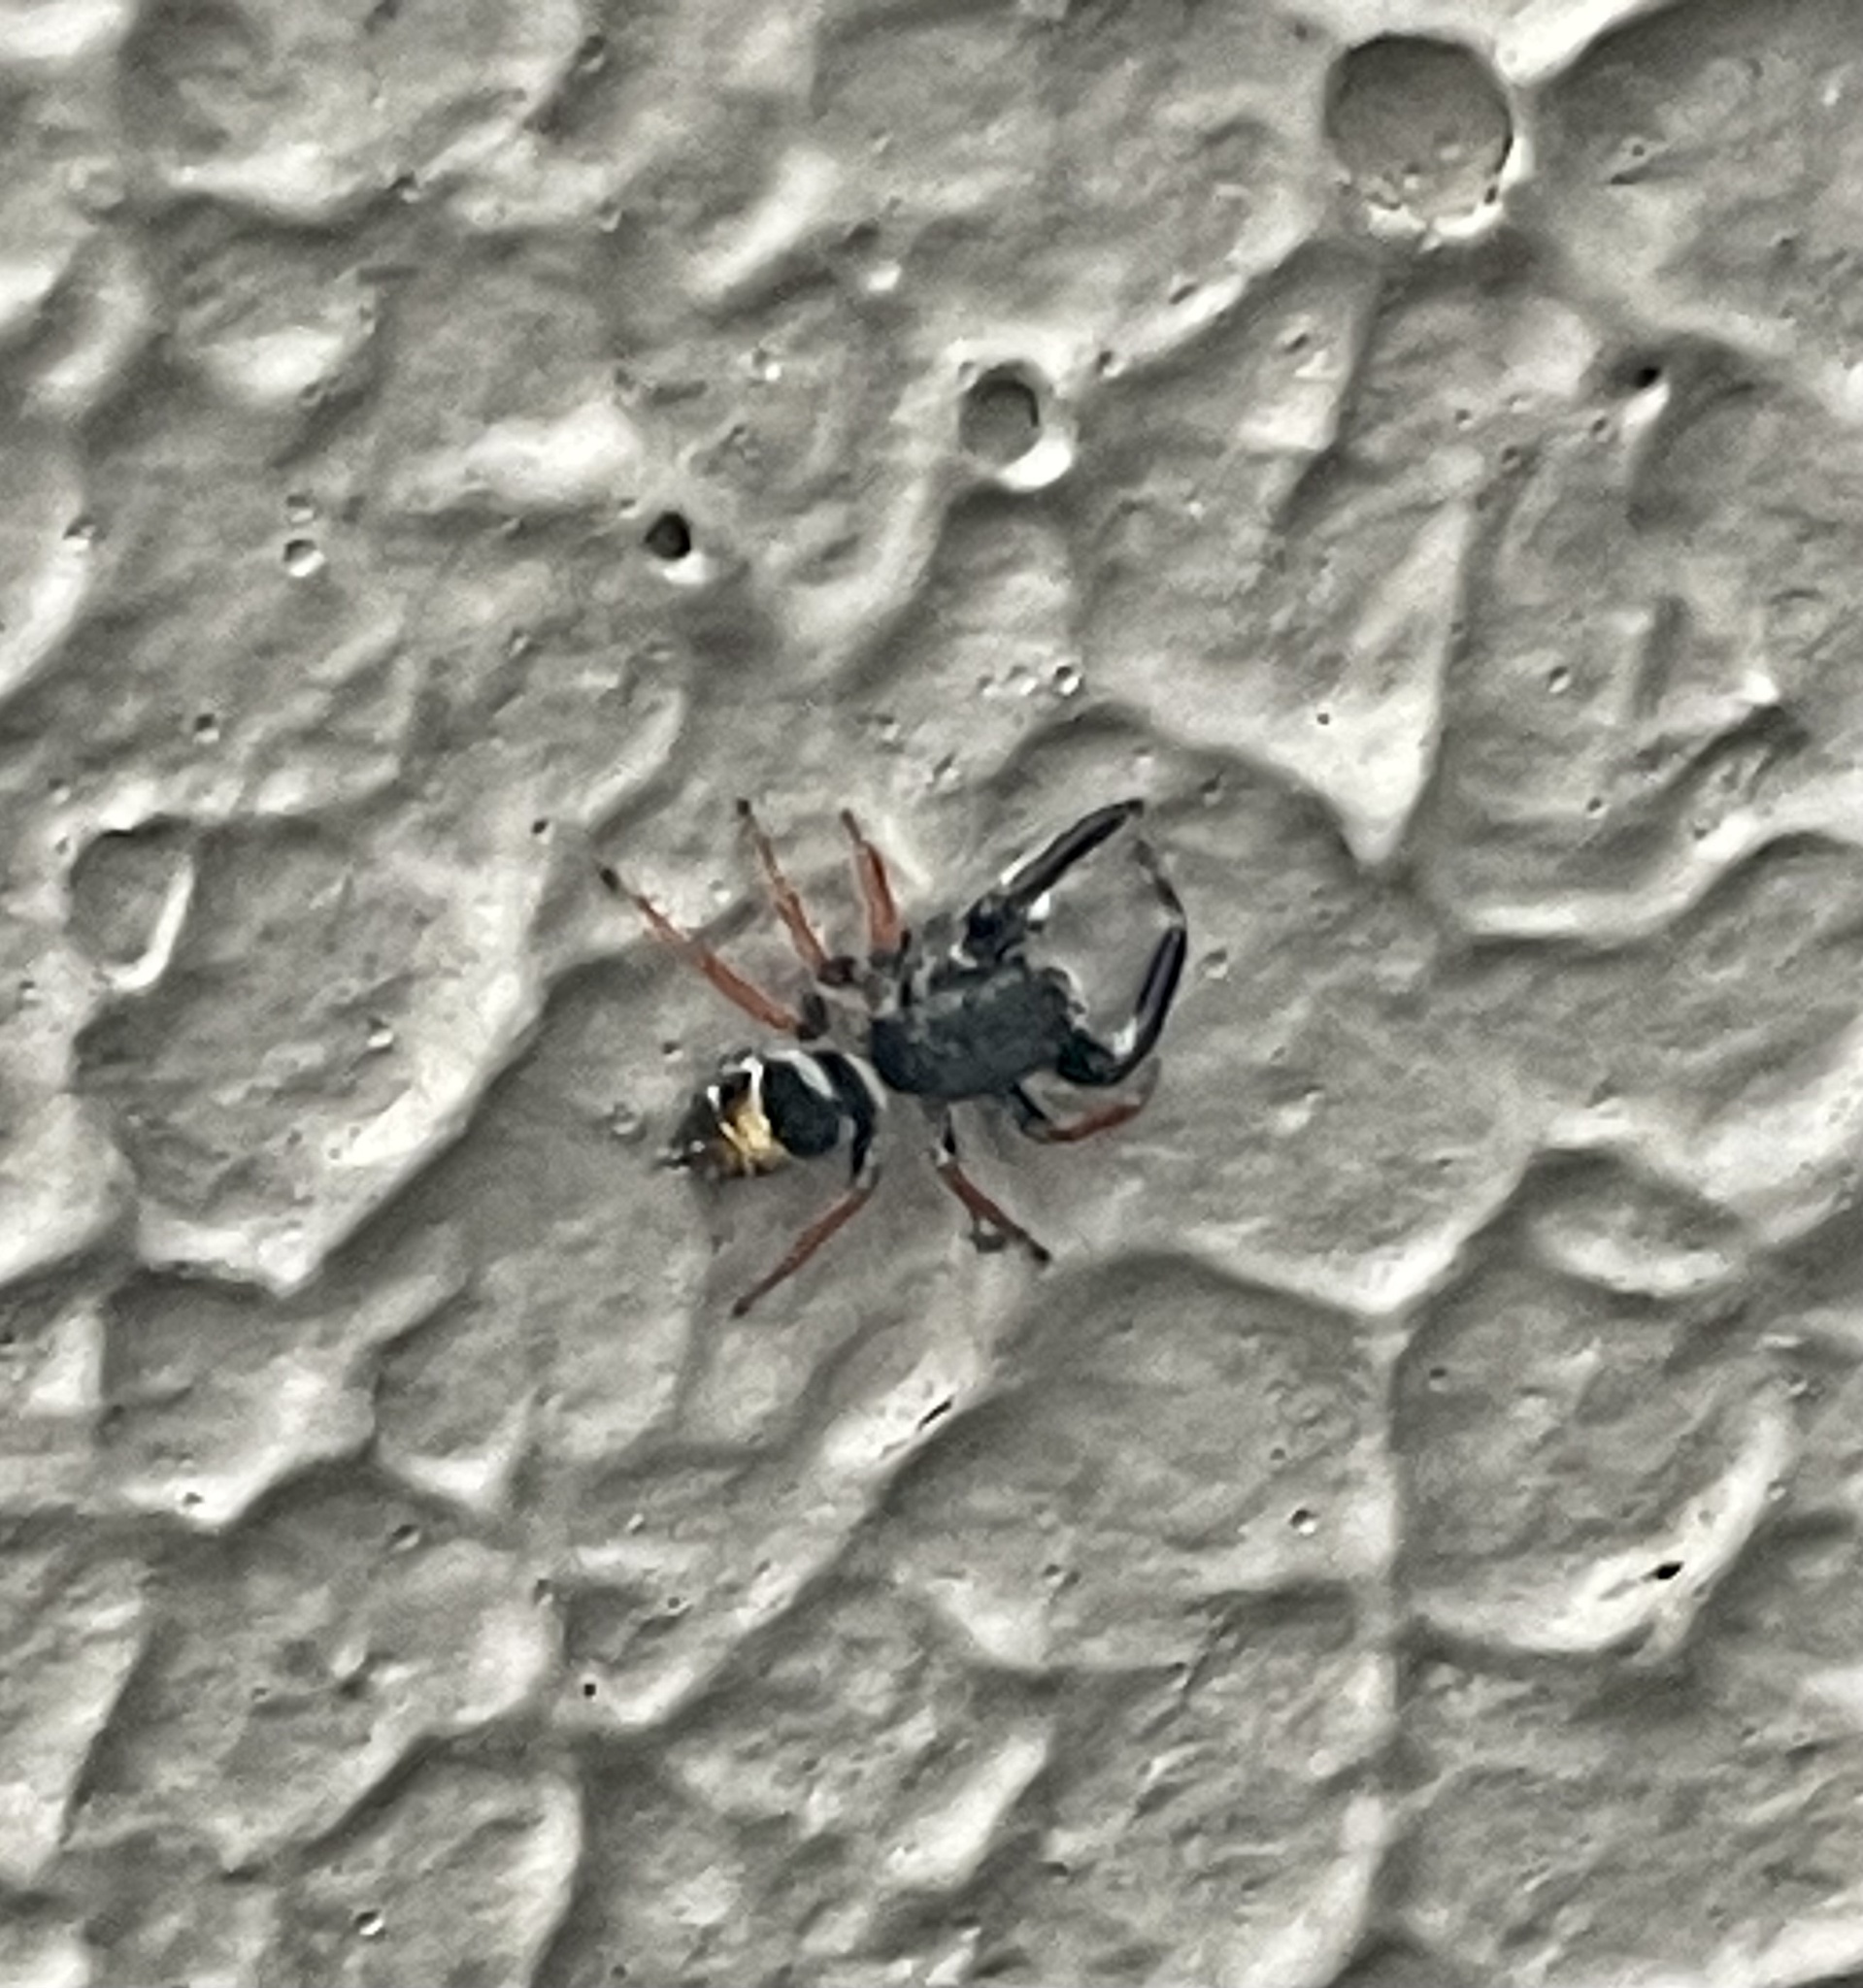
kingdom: Animalia
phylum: Arthropoda
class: Arachnida
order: Araneae
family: Salticidae
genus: Apricia
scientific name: Apricia jovialis
